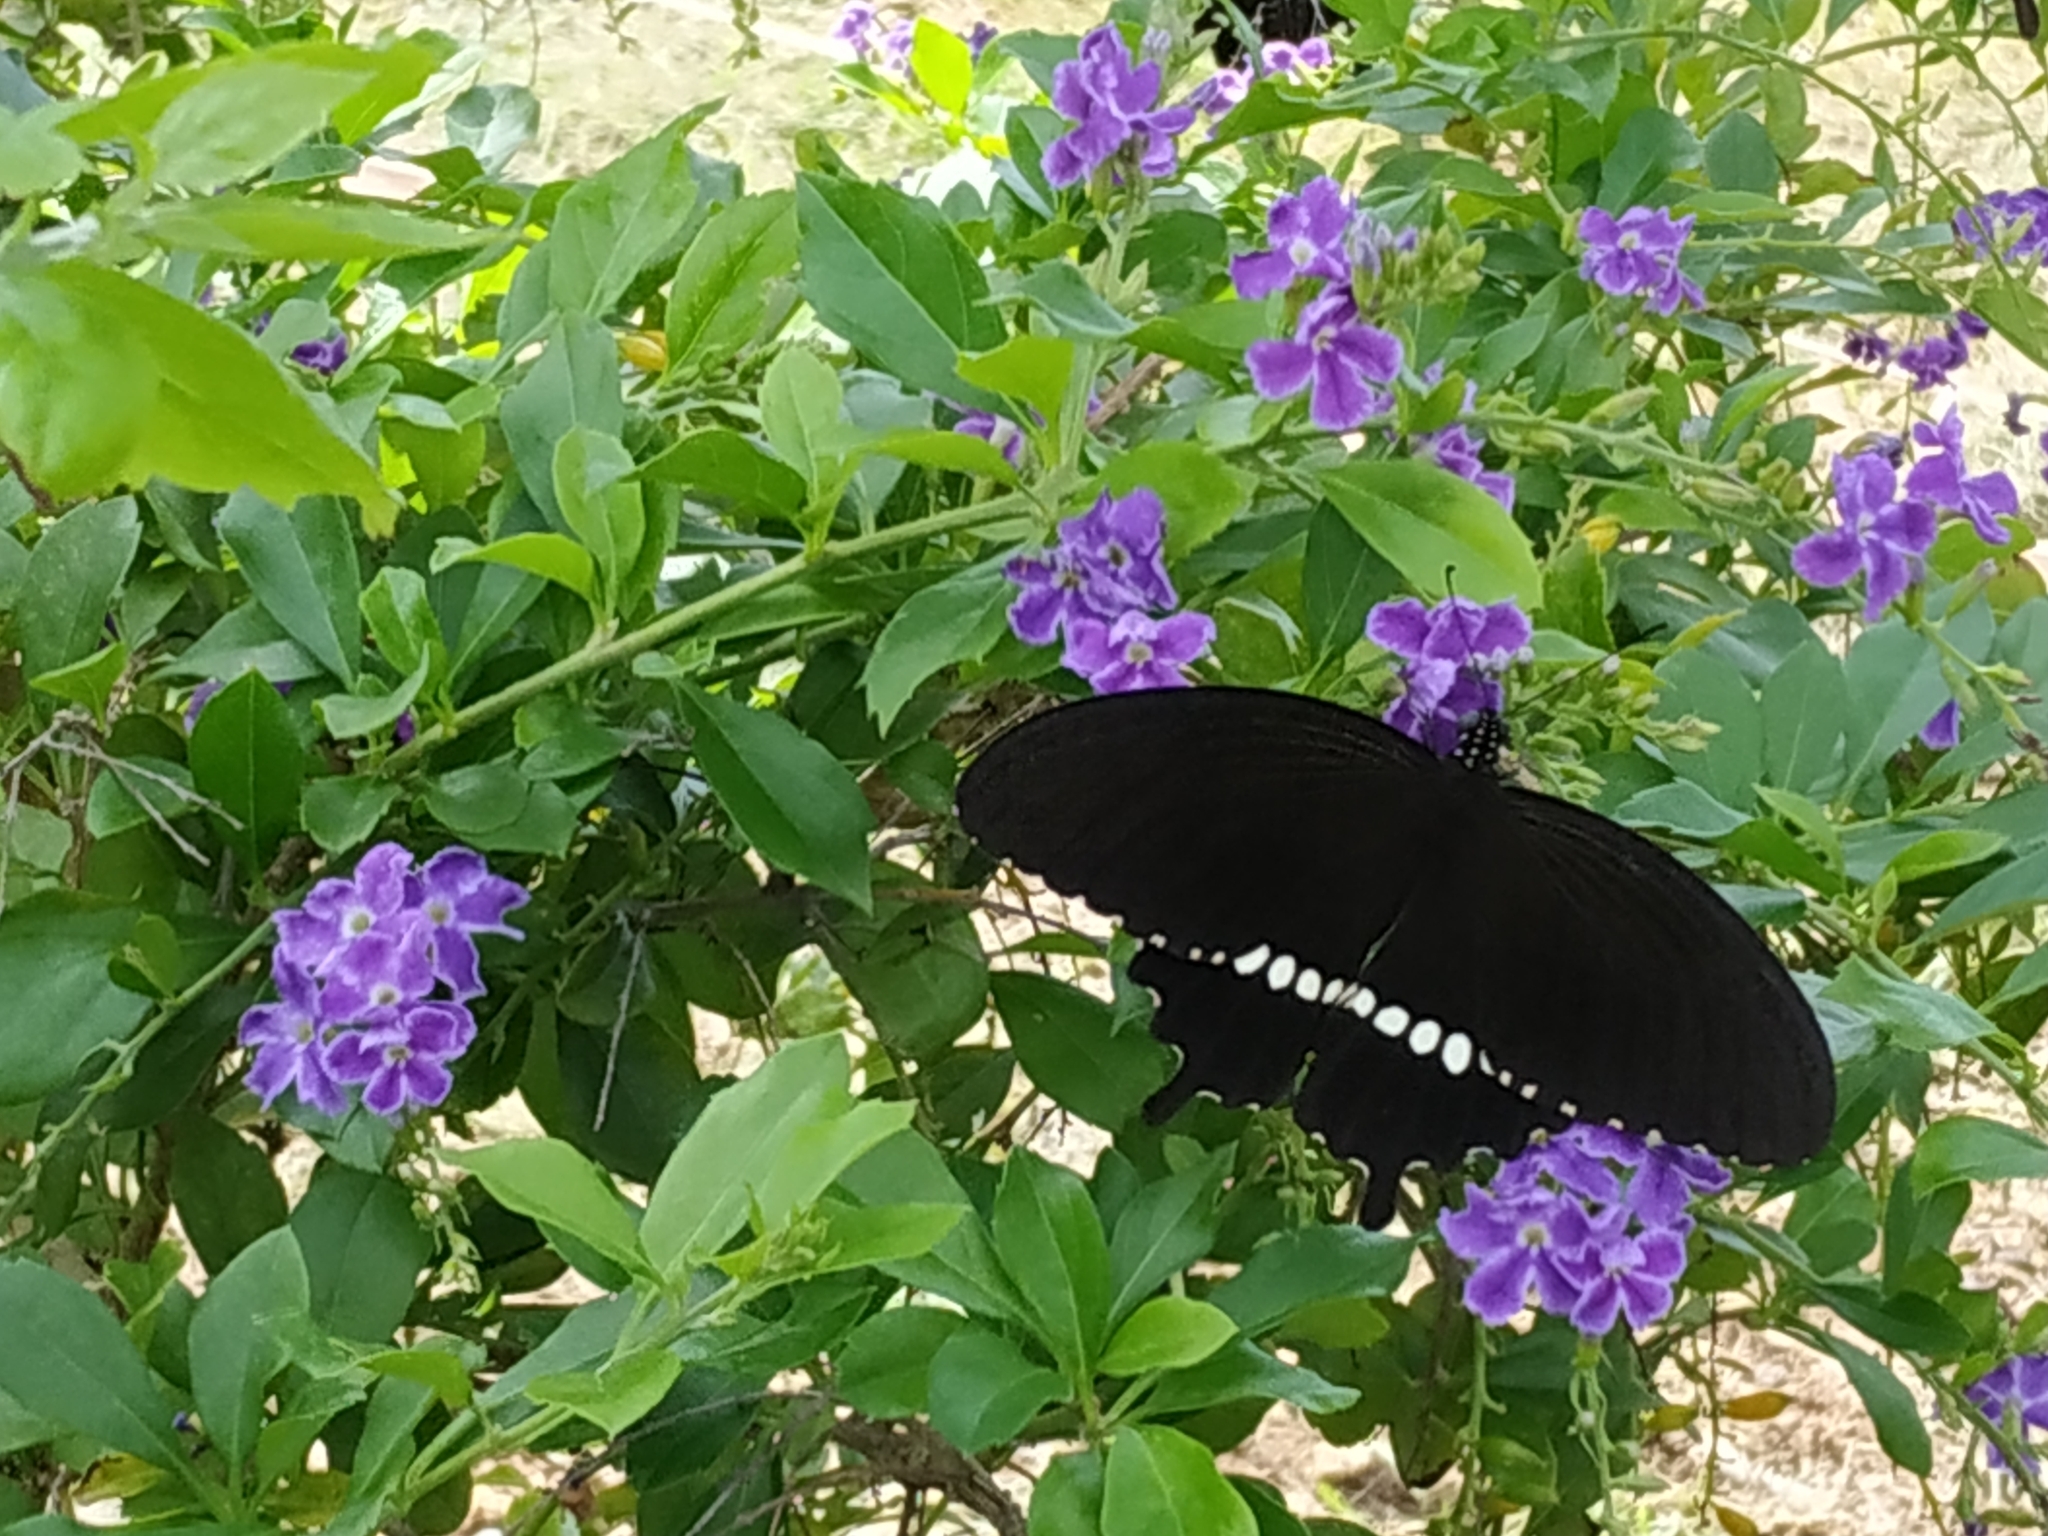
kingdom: Animalia
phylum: Arthropoda
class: Insecta
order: Lepidoptera
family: Papilionidae
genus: Papilio
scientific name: Papilio polytes
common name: Common mormon
